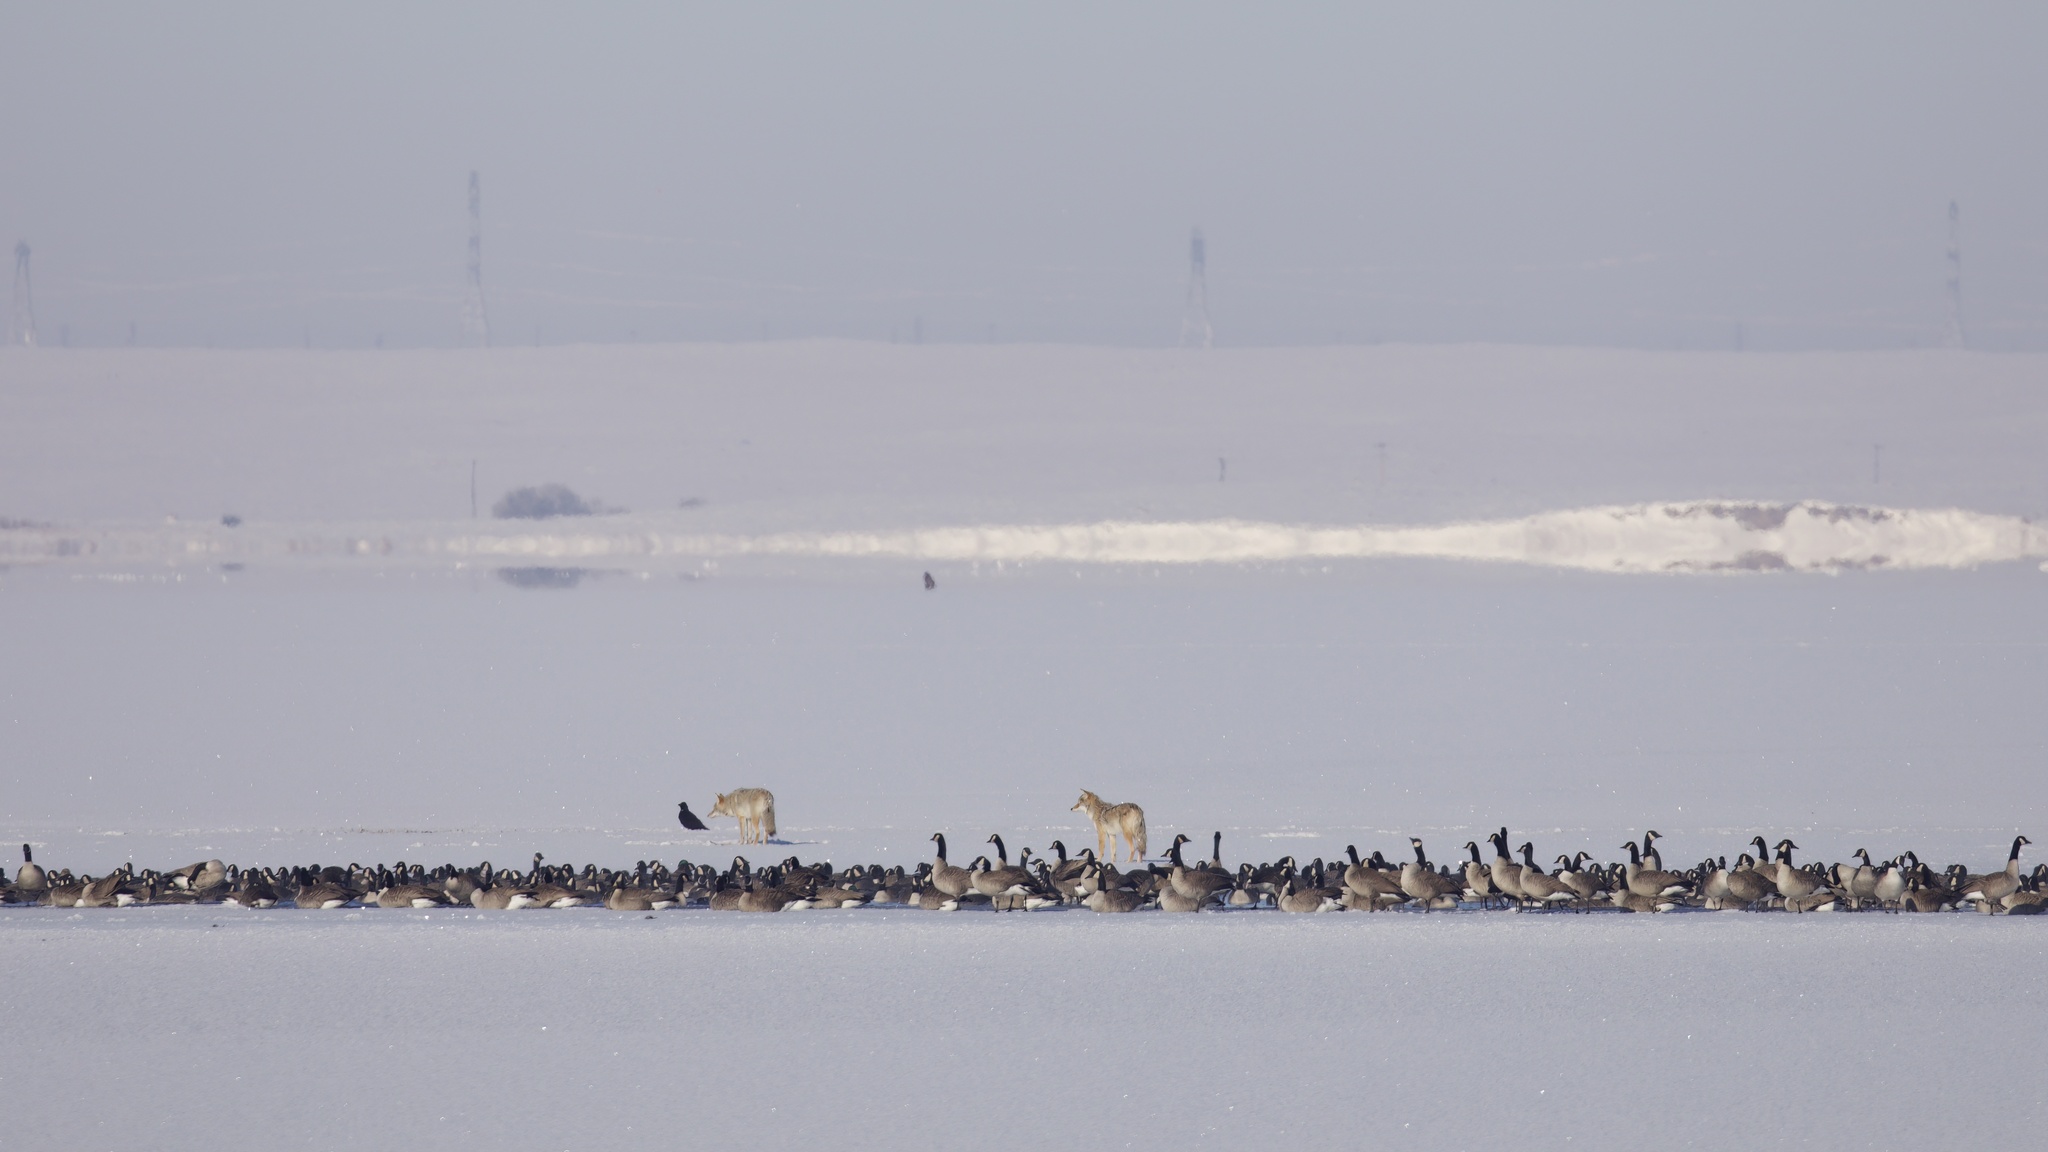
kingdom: Animalia
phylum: Chordata
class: Aves
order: Passeriformes
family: Corvidae
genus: Corvus
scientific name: Corvus brachyrhynchos
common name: American crow
